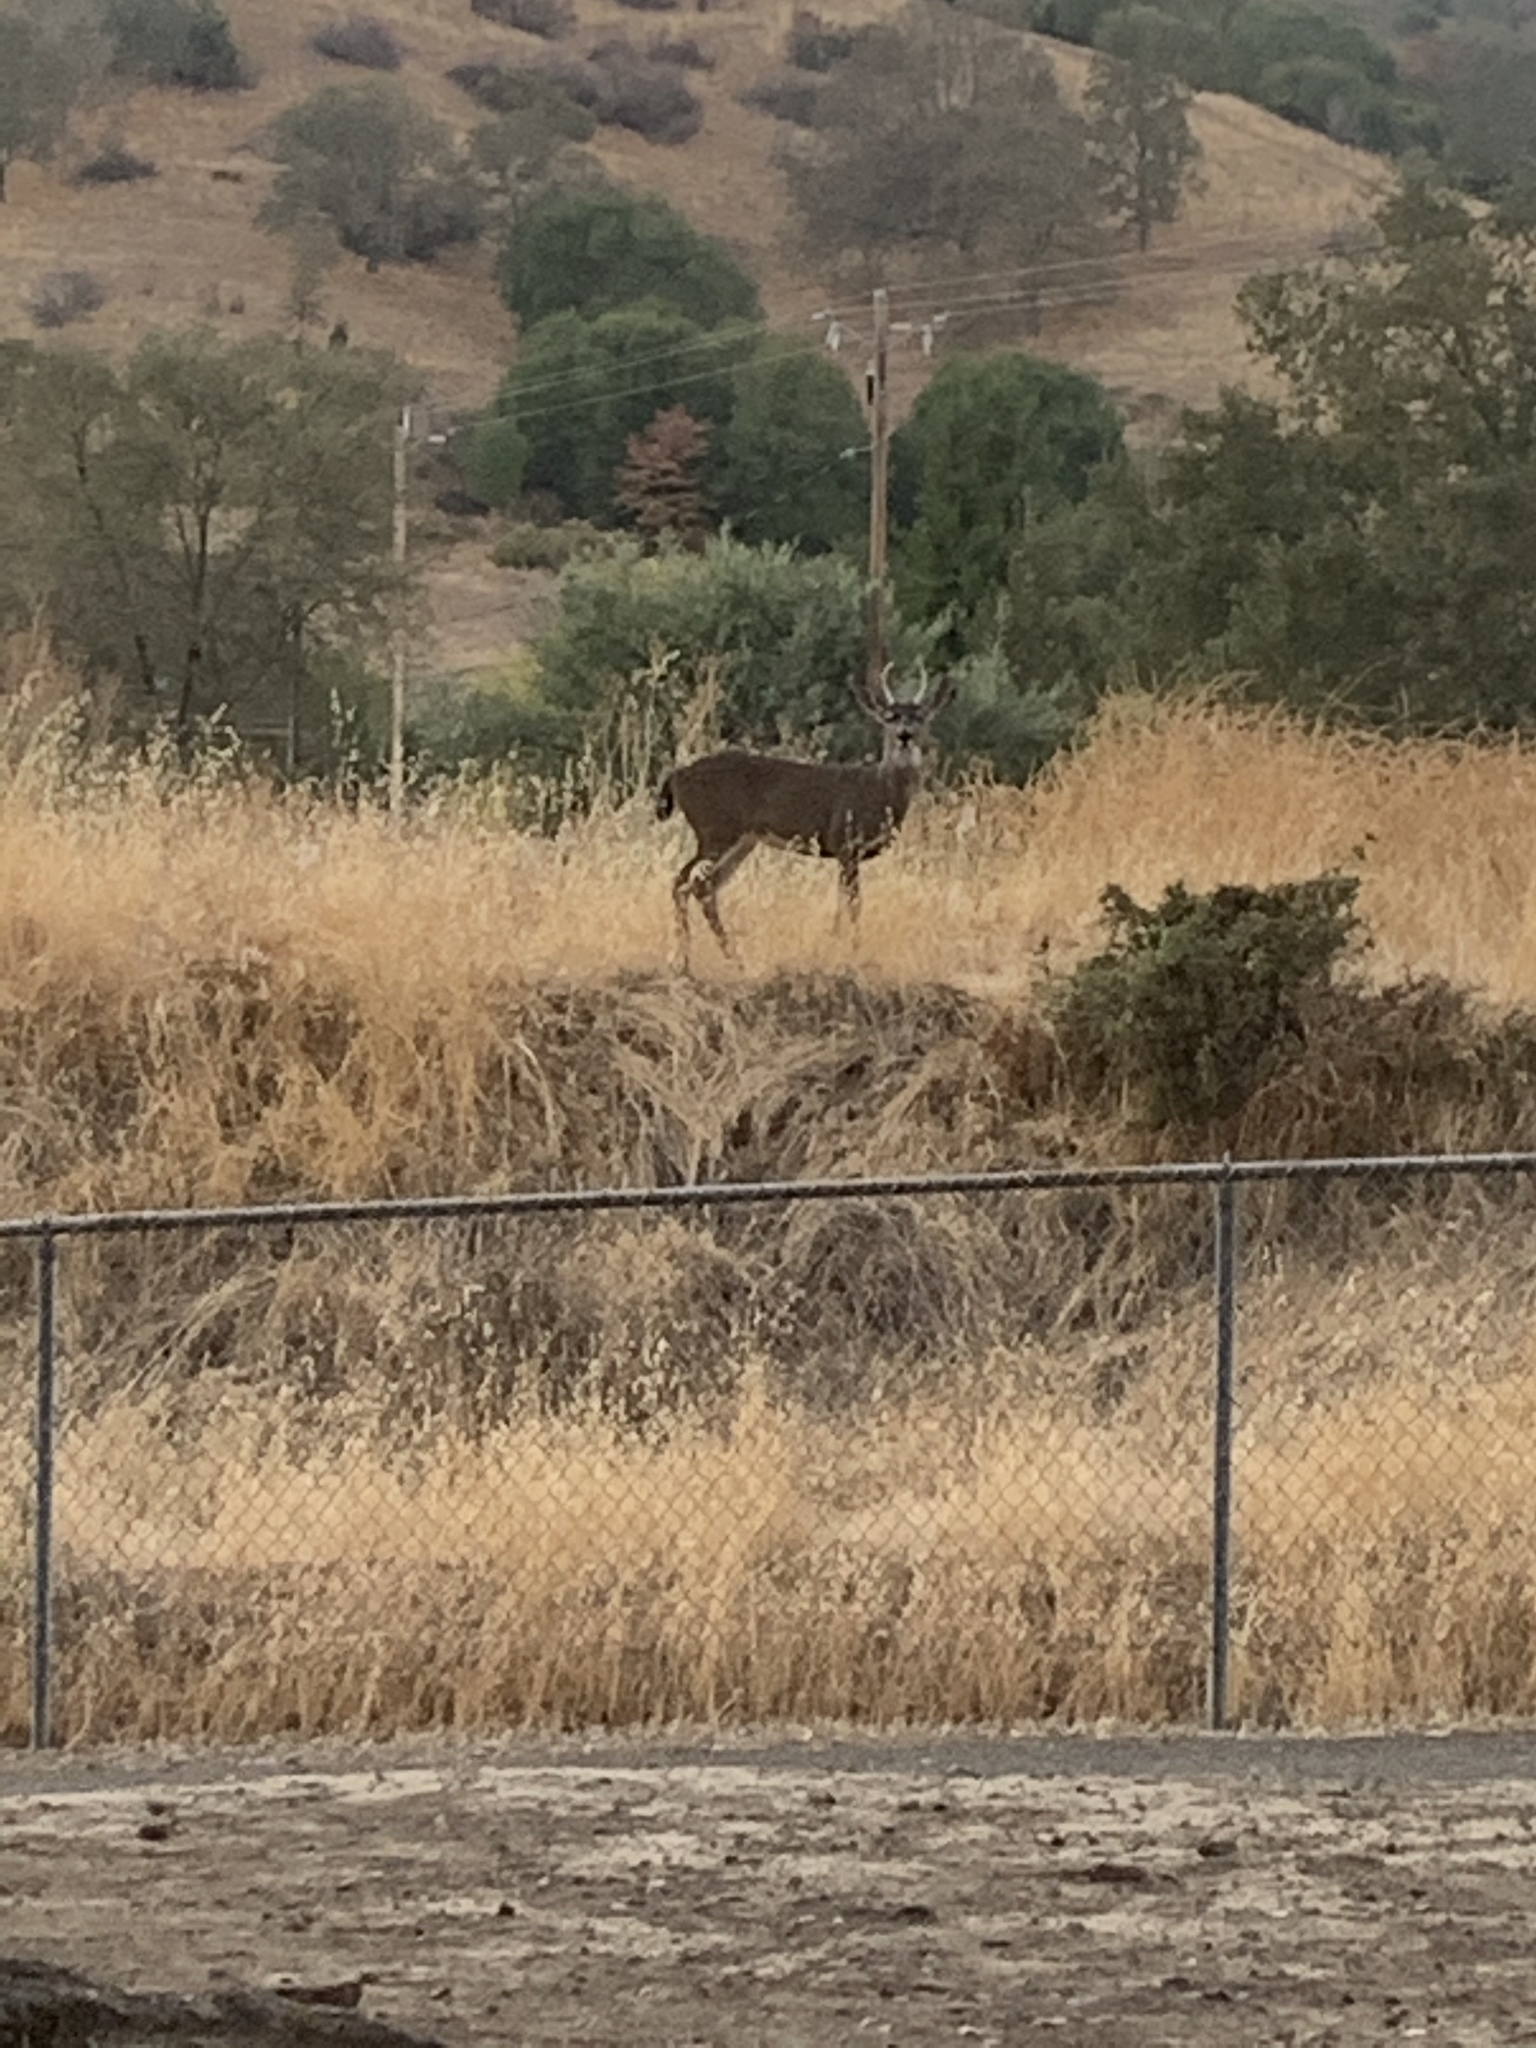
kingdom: Animalia
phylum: Chordata
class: Mammalia
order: Artiodactyla
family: Cervidae
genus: Odocoileus
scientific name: Odocoileus hemionus
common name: Mule deer
